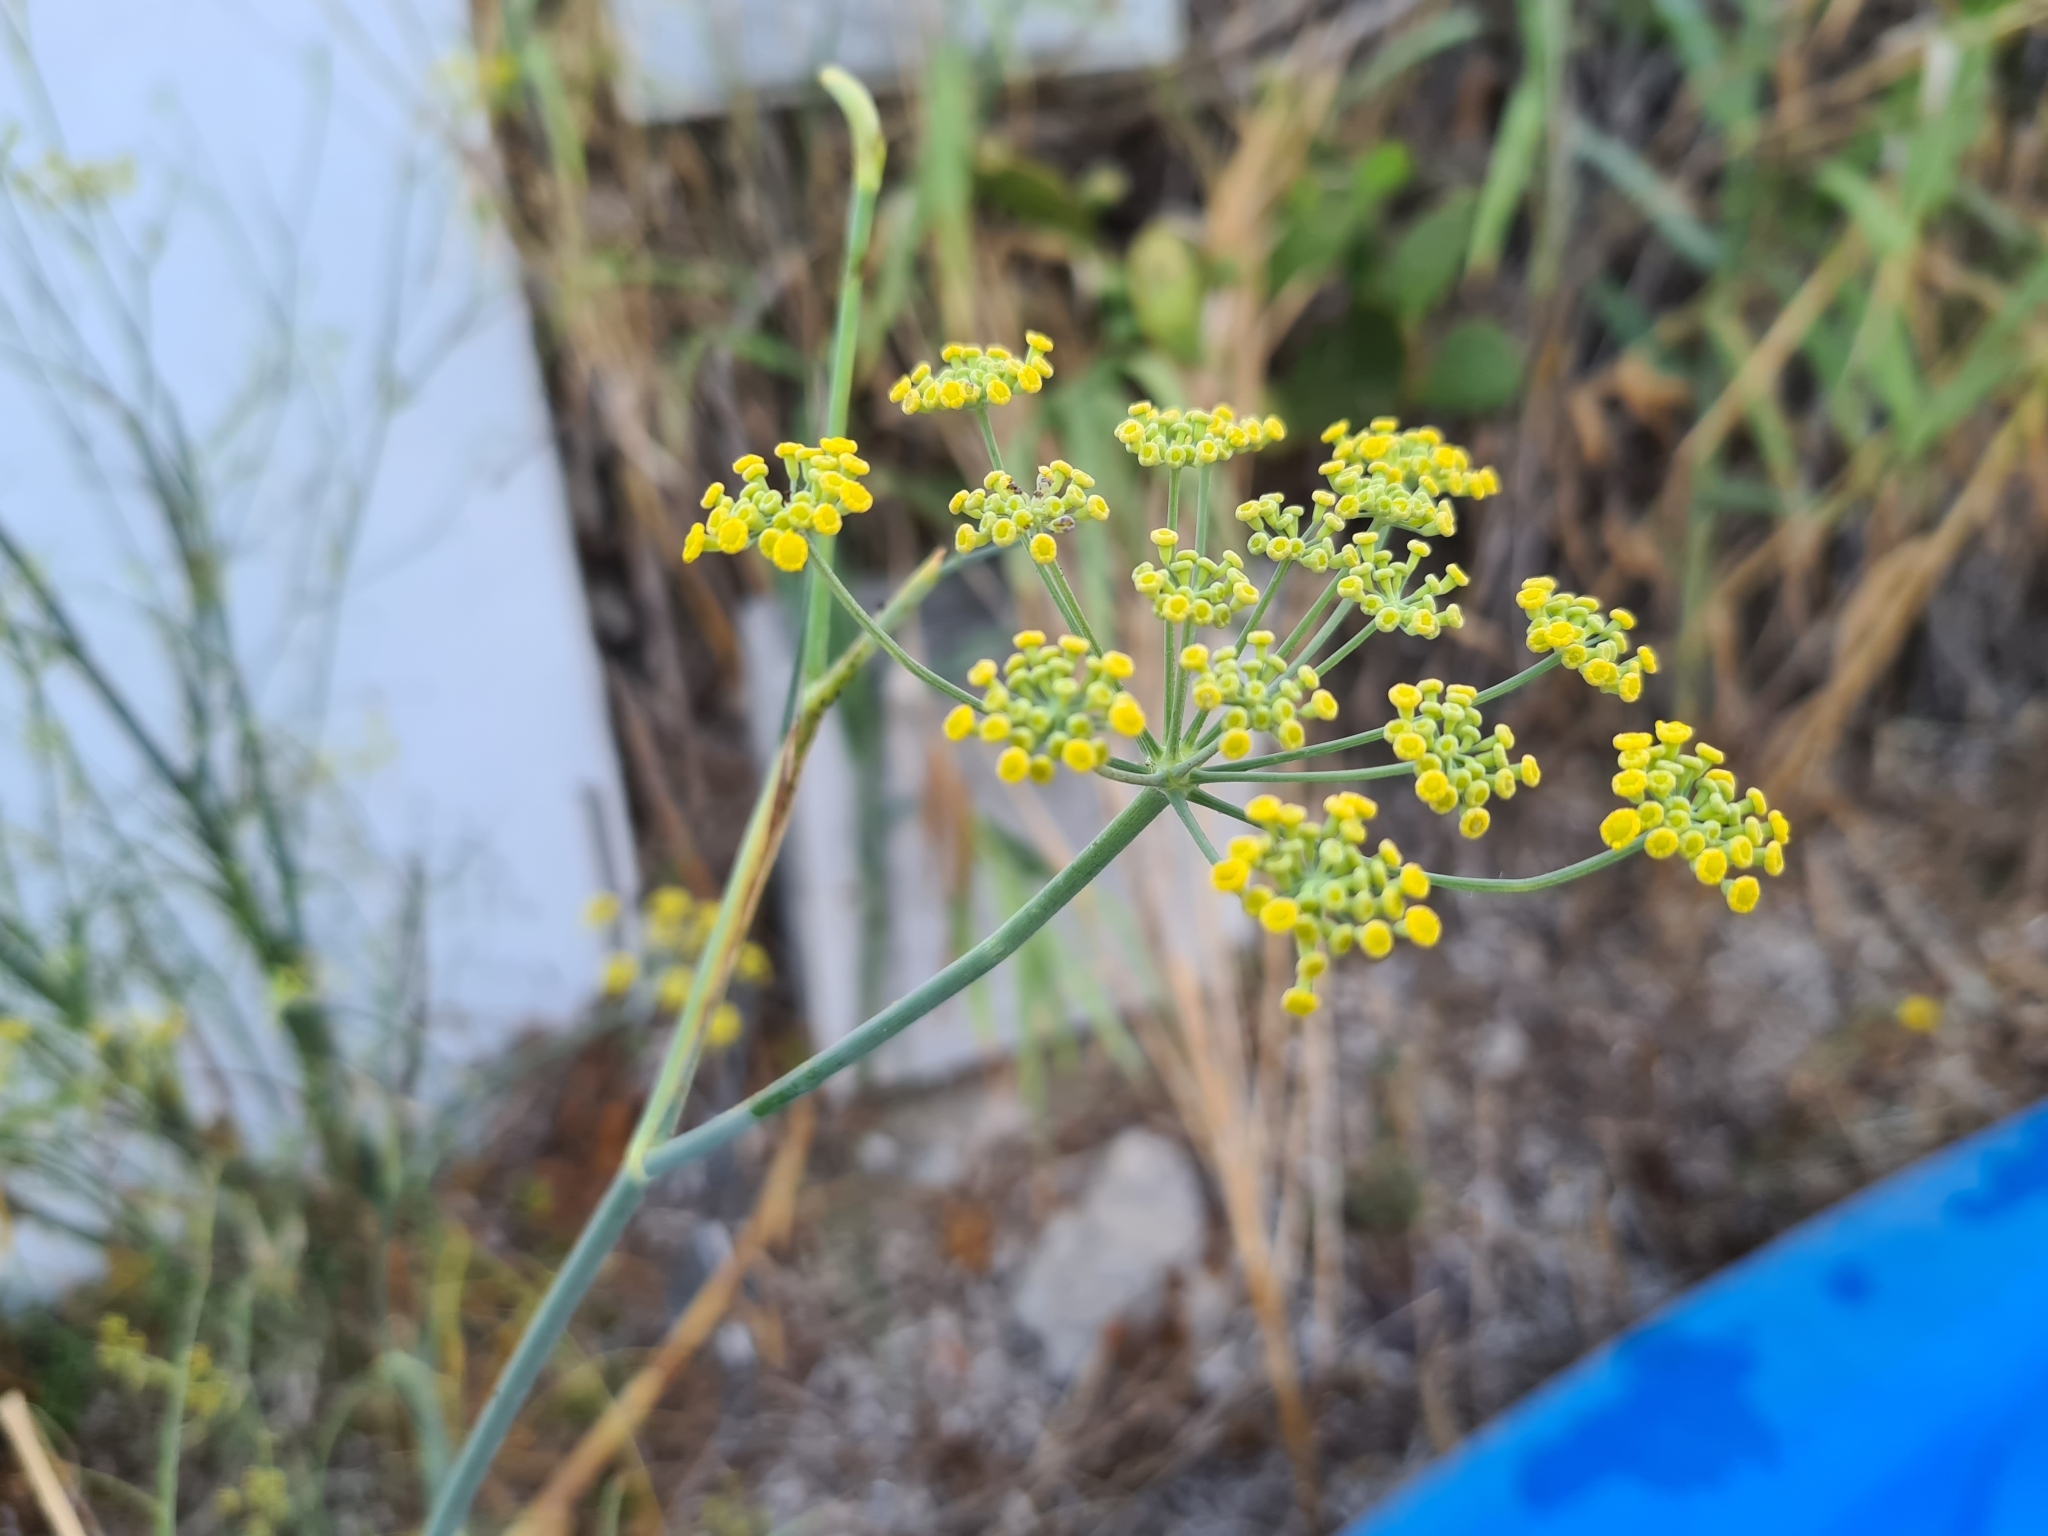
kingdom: Plantae
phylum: Tracheophyta
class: Magnoliopsida
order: Apiales
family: Apiaceae
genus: Foeniculum
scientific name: Foeniculum vulgare
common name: Fennel
